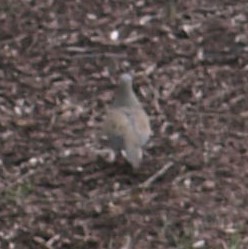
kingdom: Animalia
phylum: Chordata
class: Aves
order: Columbiformes
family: Columbidae
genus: Zenaida
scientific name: Zenaida macroura
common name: Mourning dove
